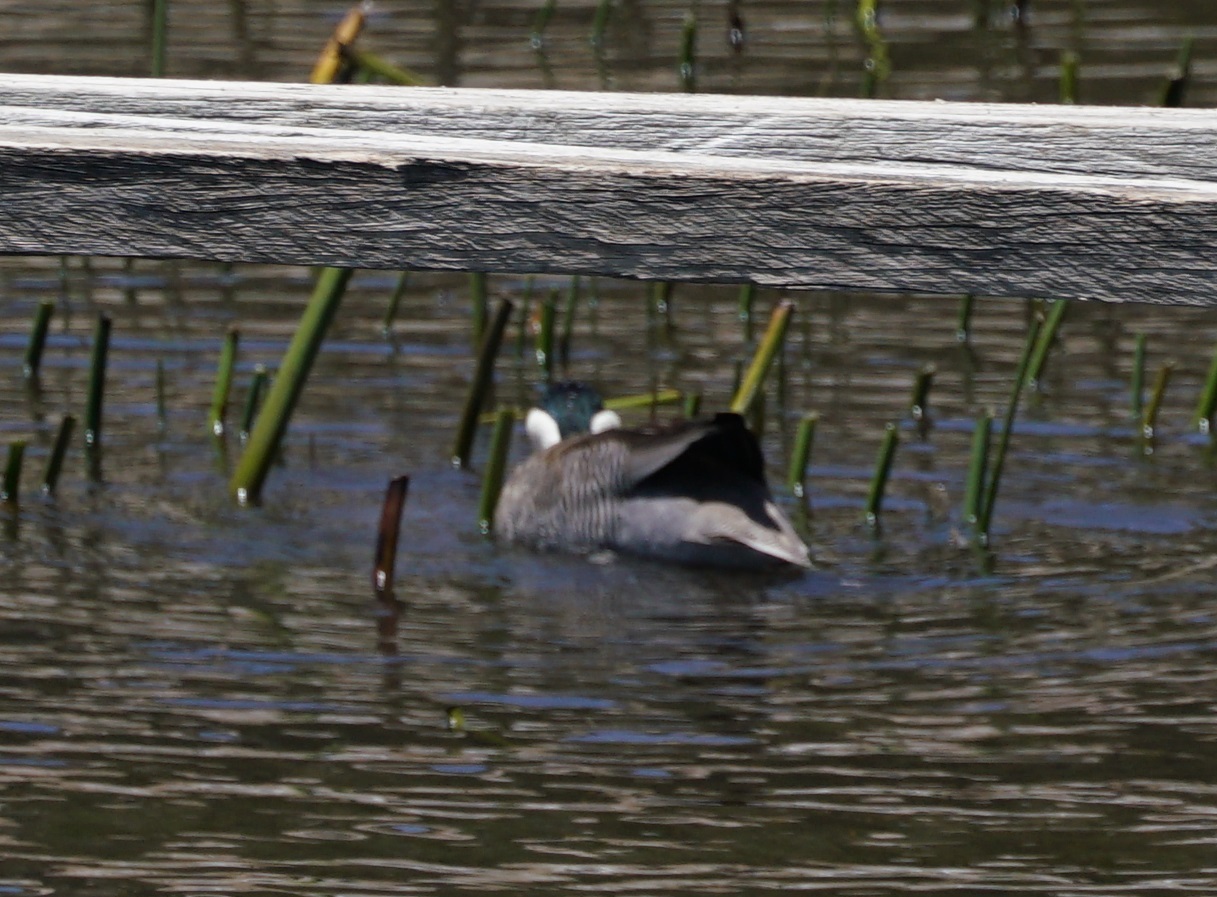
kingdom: Animalia
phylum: Chordata
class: Aves
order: Anseriformes
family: Anatidae
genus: Spatula
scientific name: Spatula puna
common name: Puna teal
